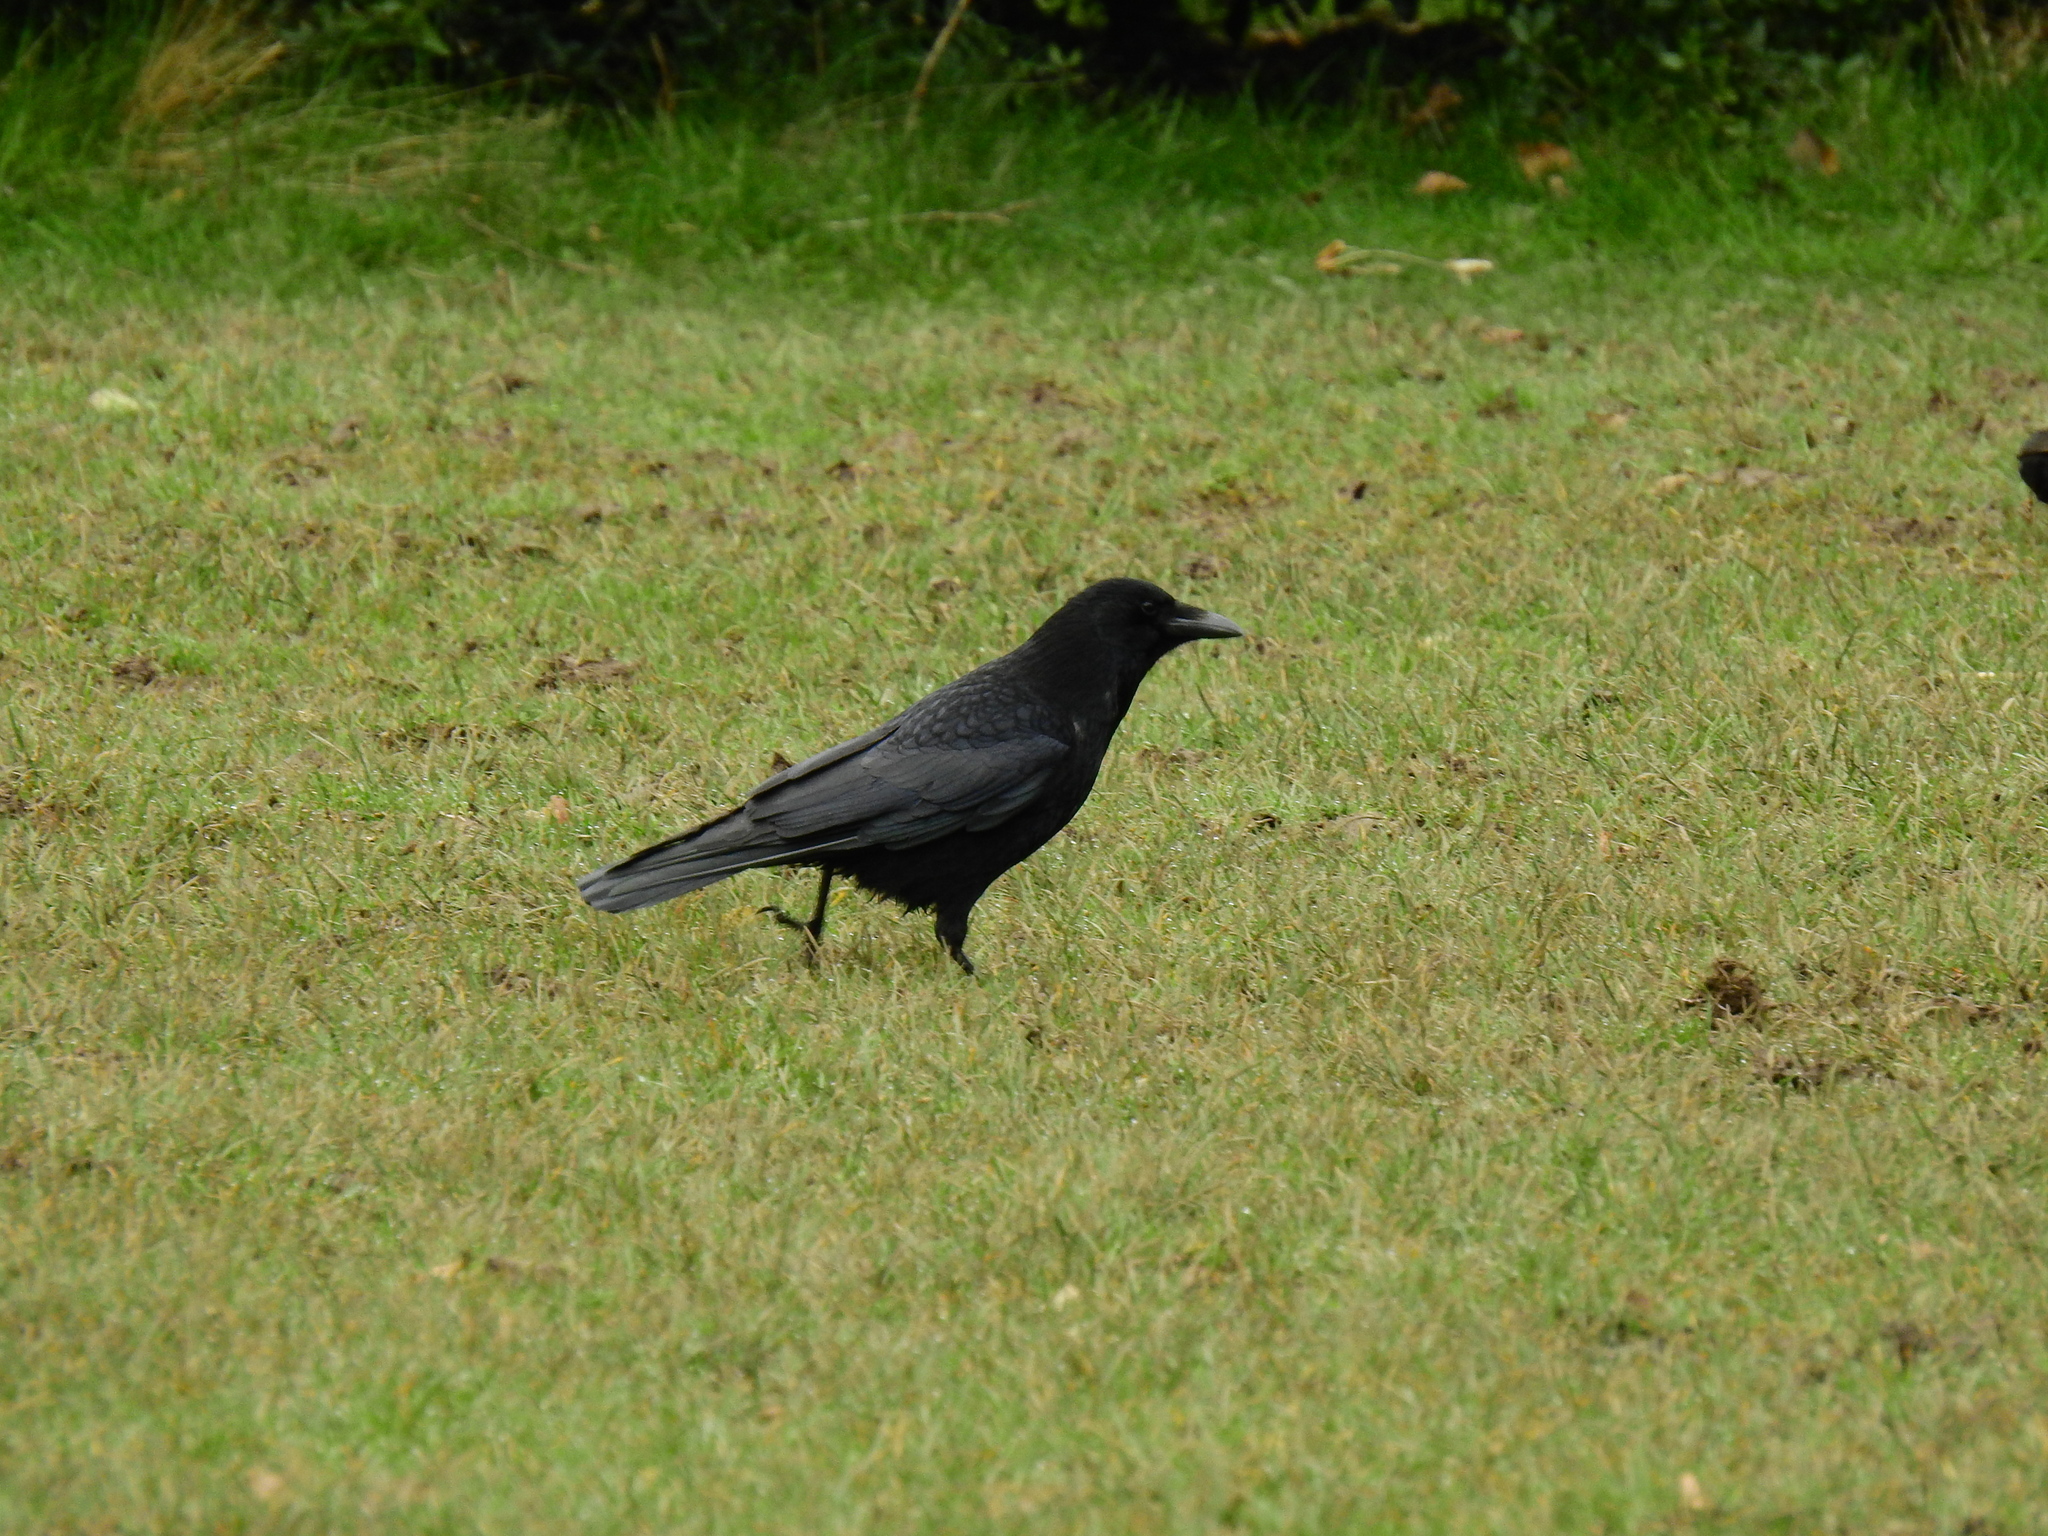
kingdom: Animalia
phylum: Chordata
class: Aves
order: Passeriformes
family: Corvidae
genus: Corvus
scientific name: Corvus corone
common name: Carrion crow
